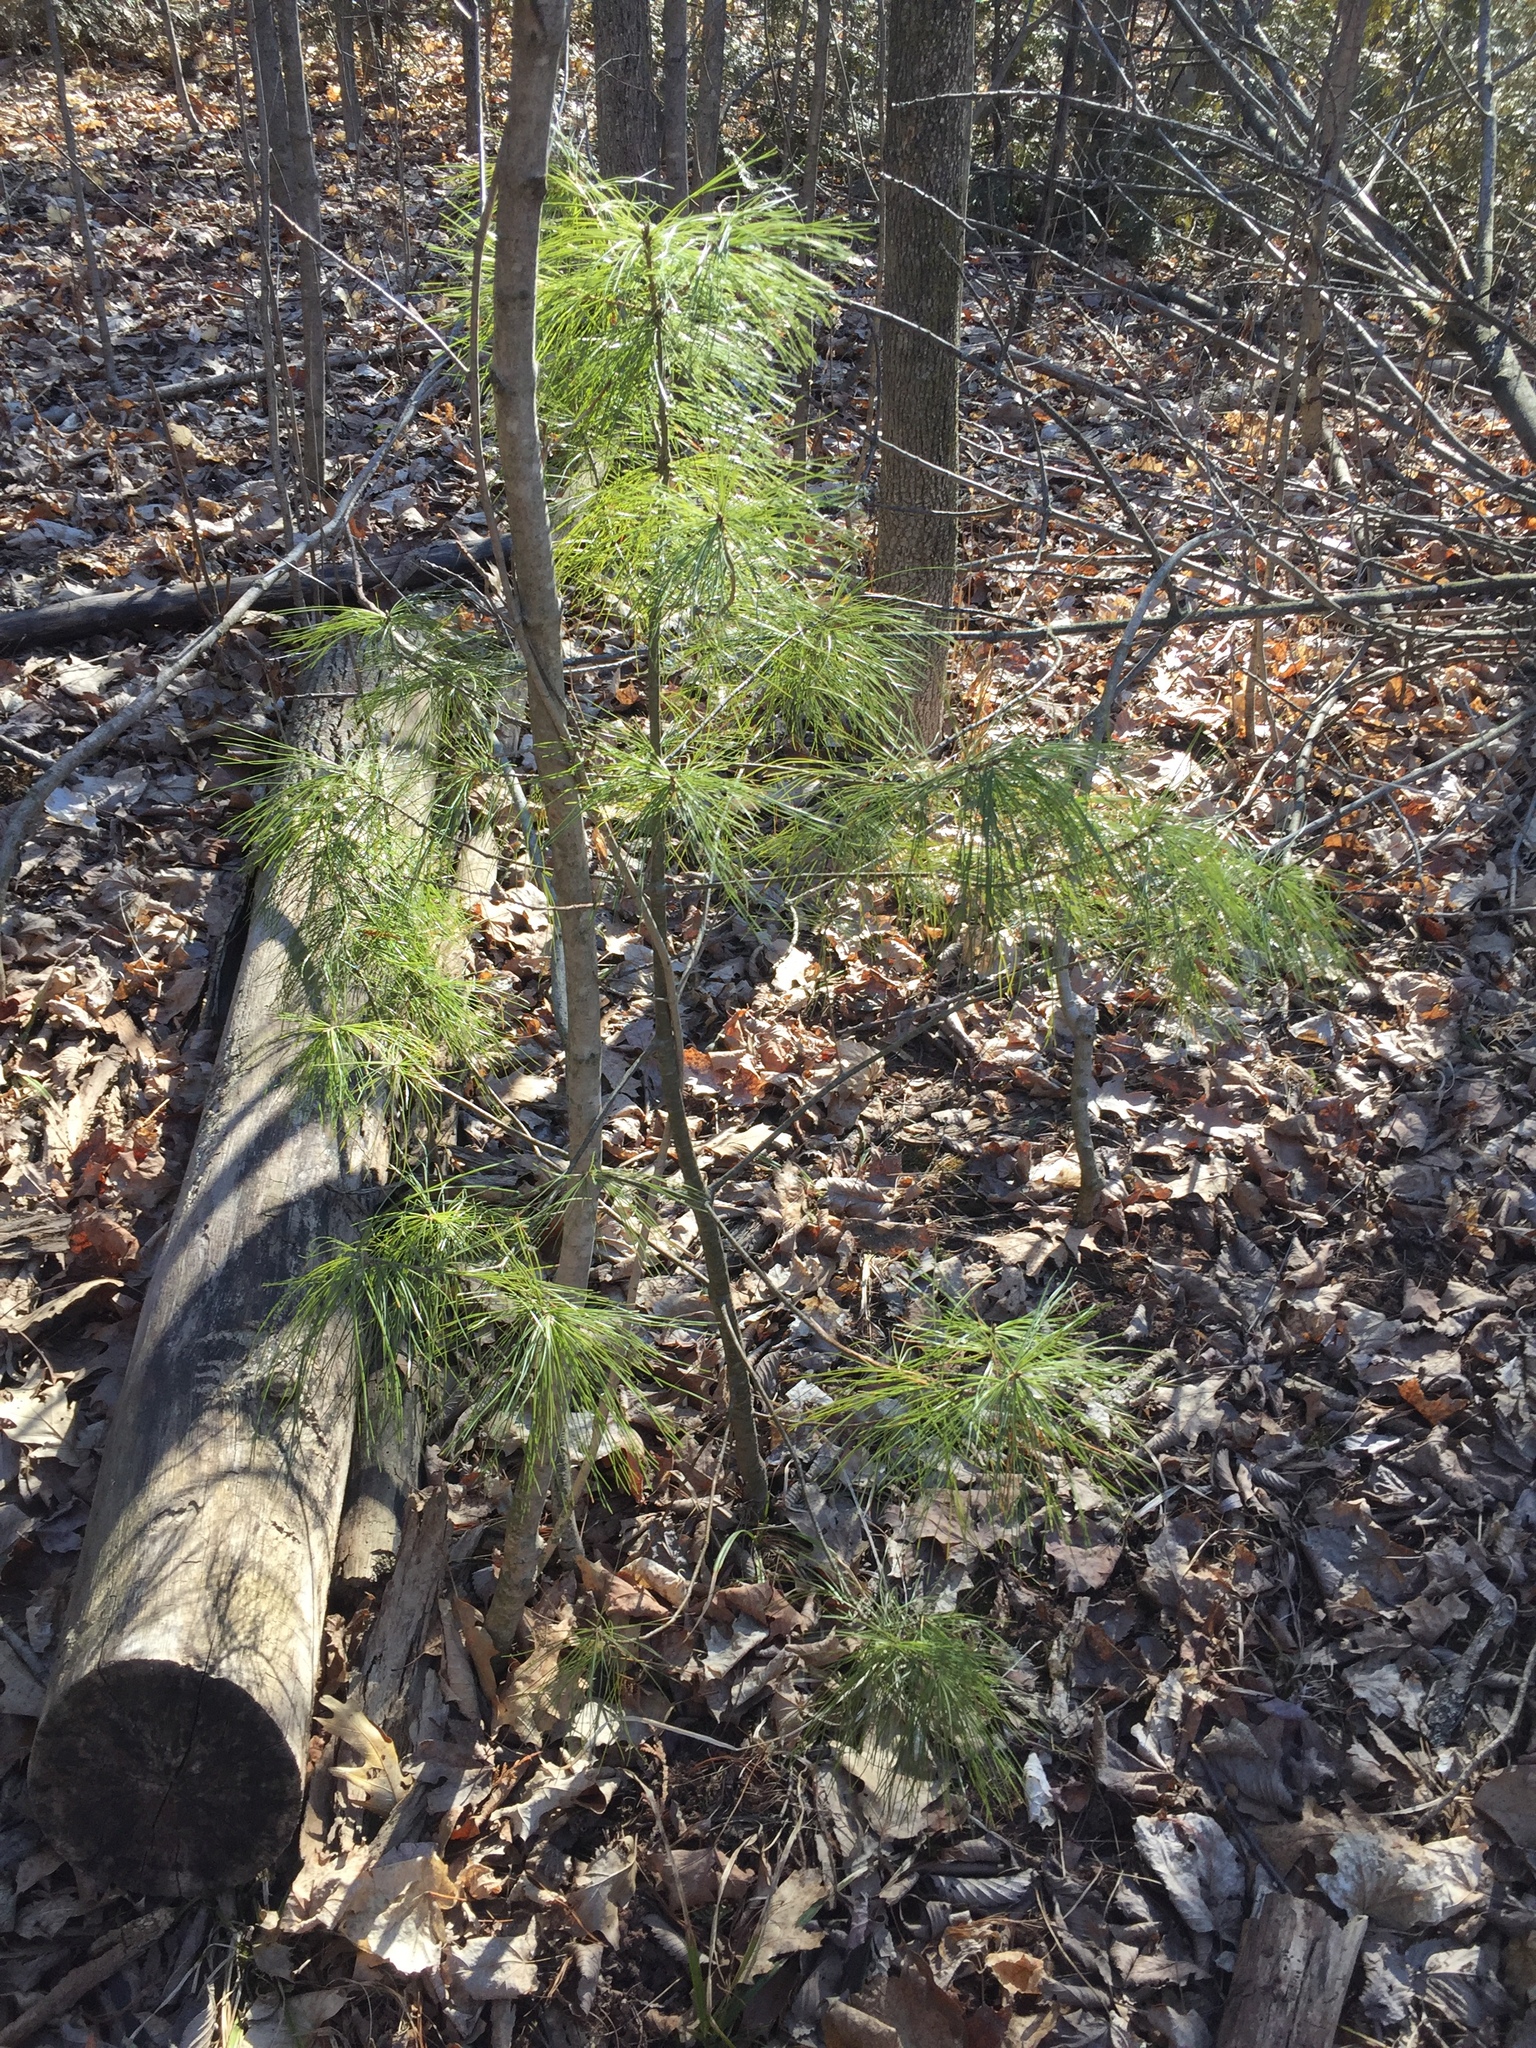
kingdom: Plantae
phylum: Tracheophyta
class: Pinopsida
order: Pinales
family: Pinaceae
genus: Pinus
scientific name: Pinus strobus
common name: Weymouth pine
